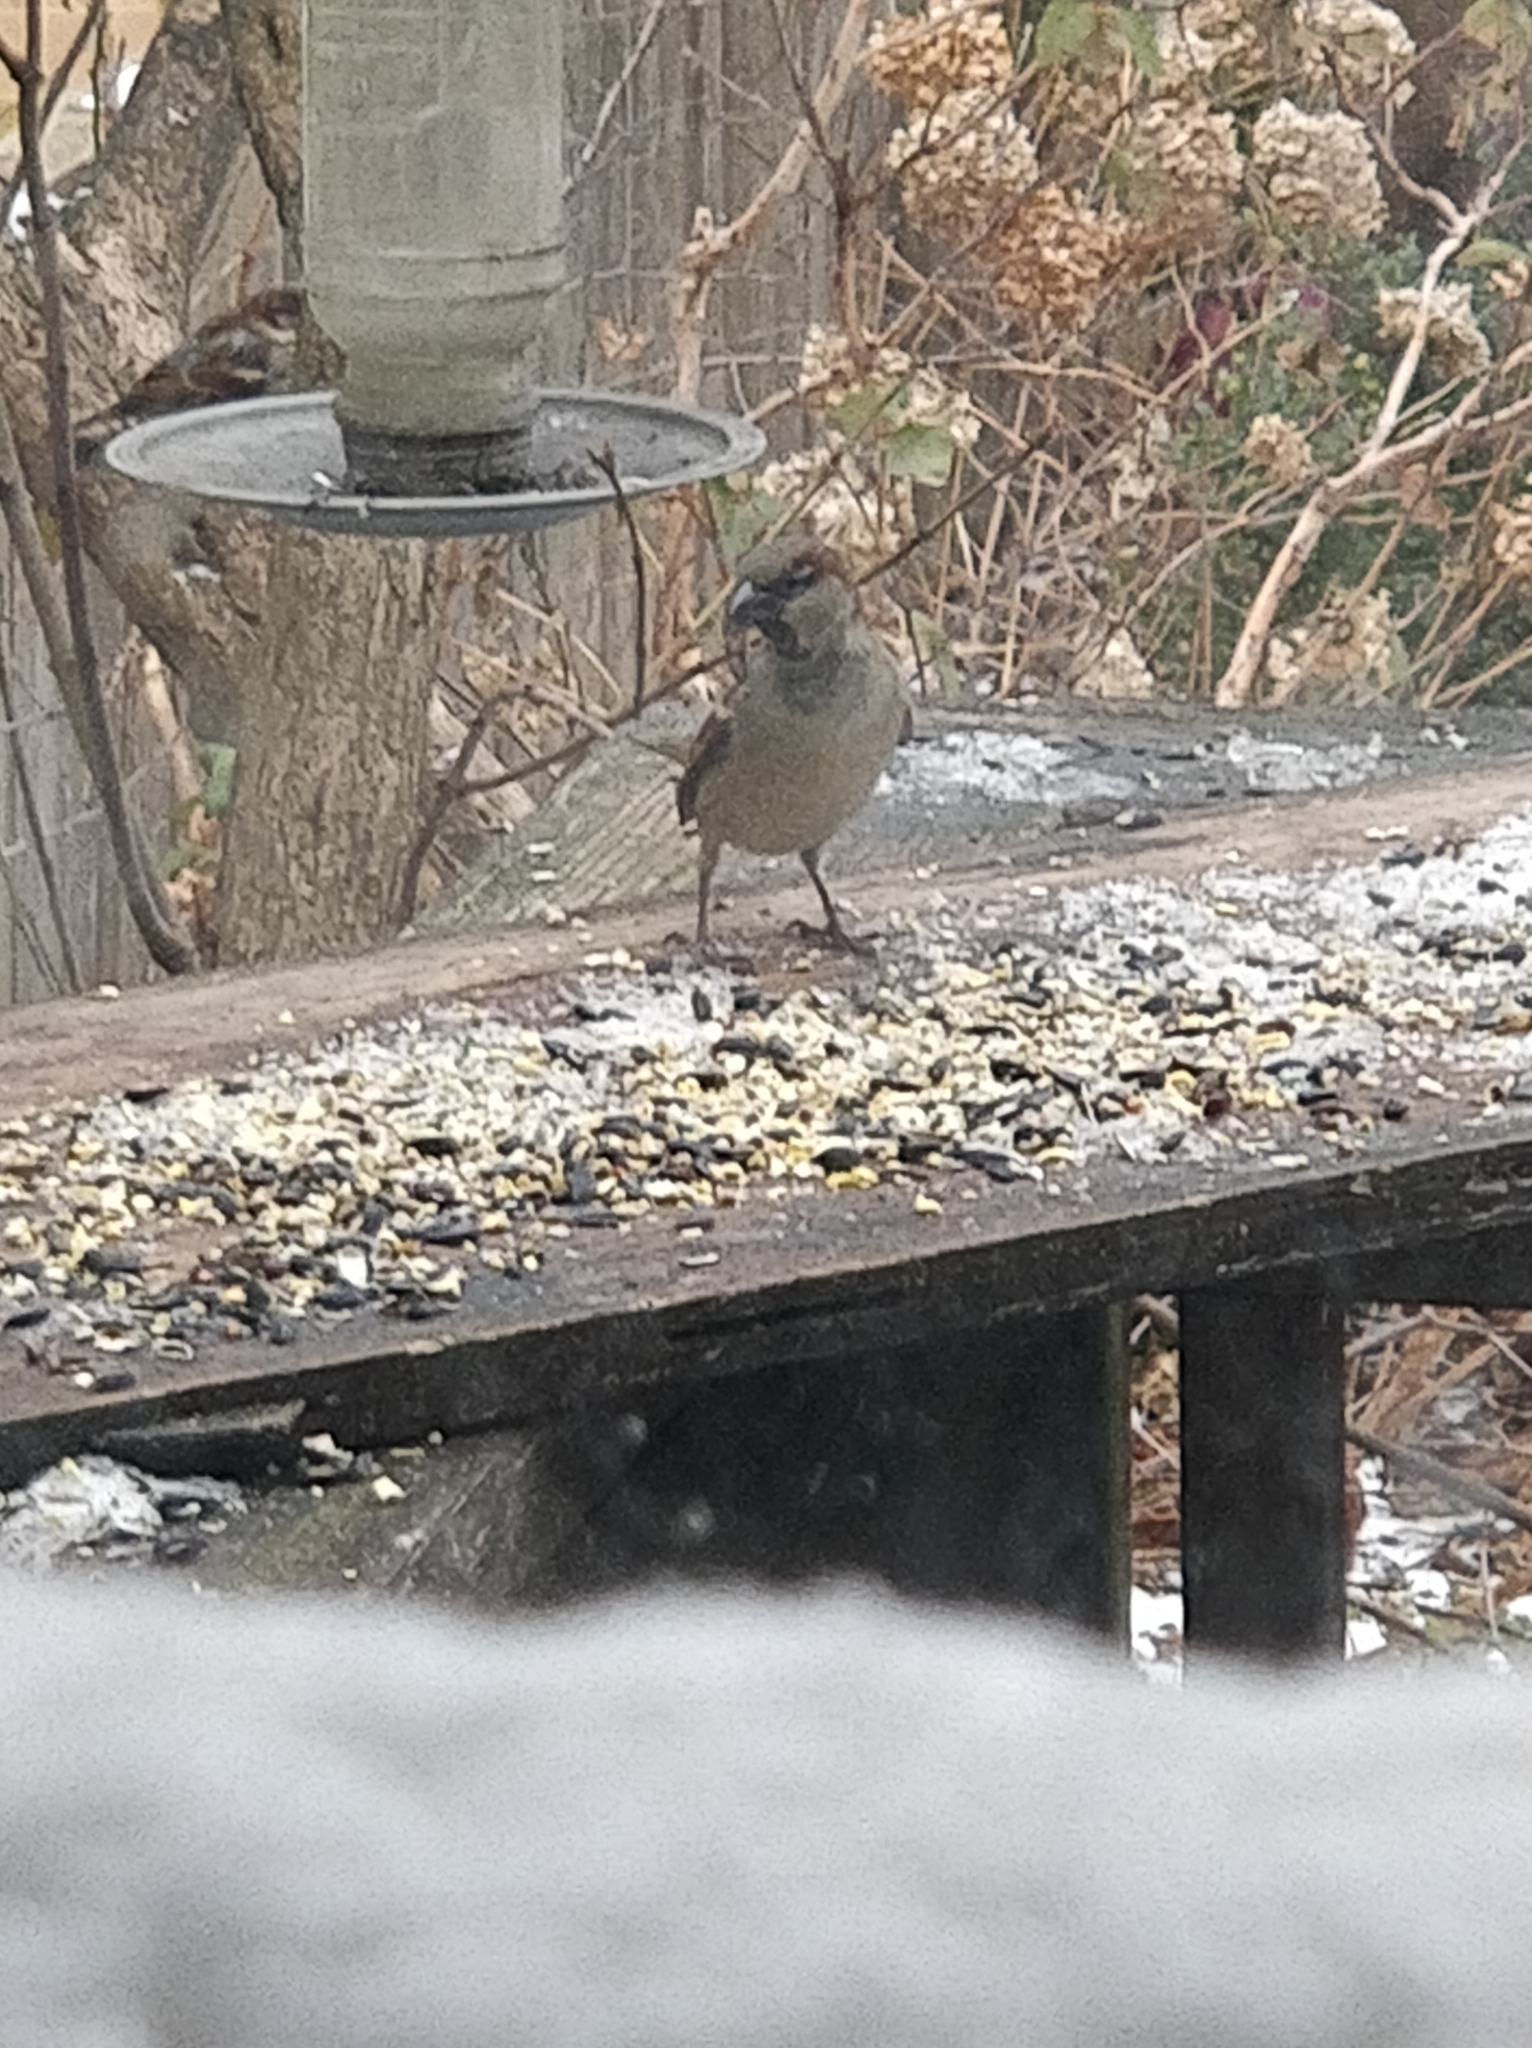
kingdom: Animalia
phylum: Chordata
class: Aves
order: Passeriformes
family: Passeridae
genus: Passer
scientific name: Passer domesticus
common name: House sparrow
